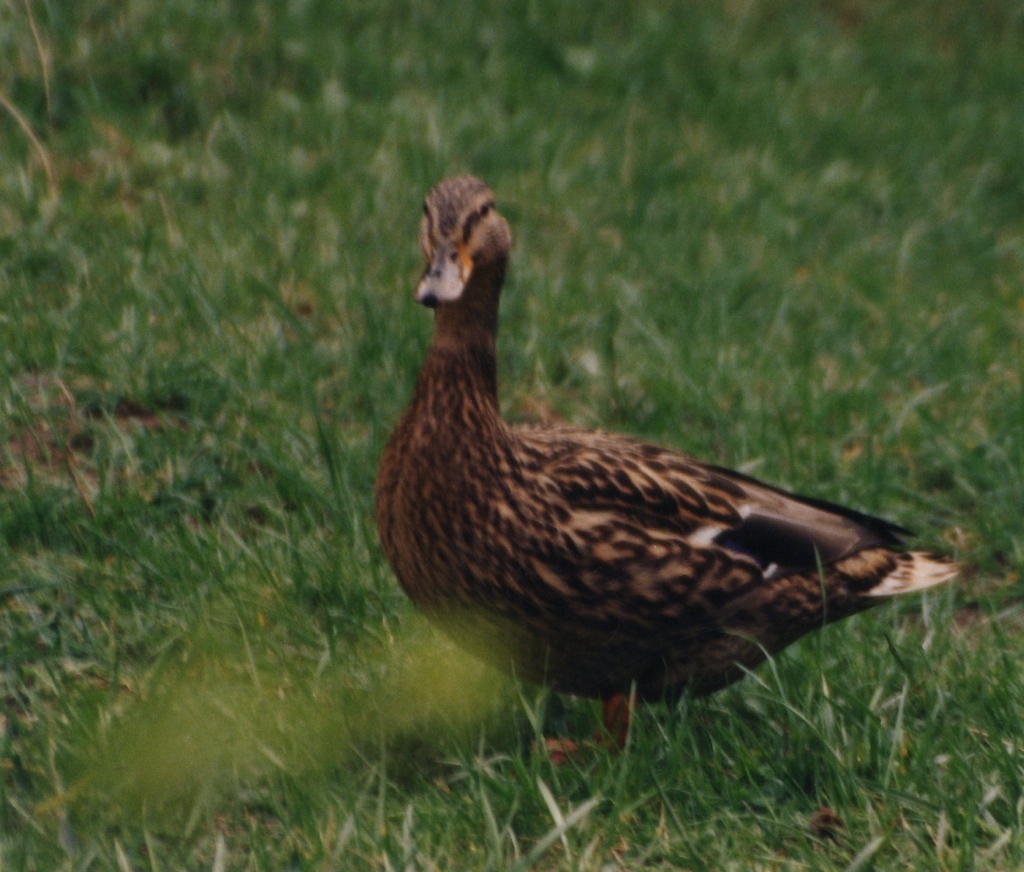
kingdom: Animalia
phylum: Chordata
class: Aves
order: Anseriformes
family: Anatidae
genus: Anas
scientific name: Anas platyrhynchos
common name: Mallard
